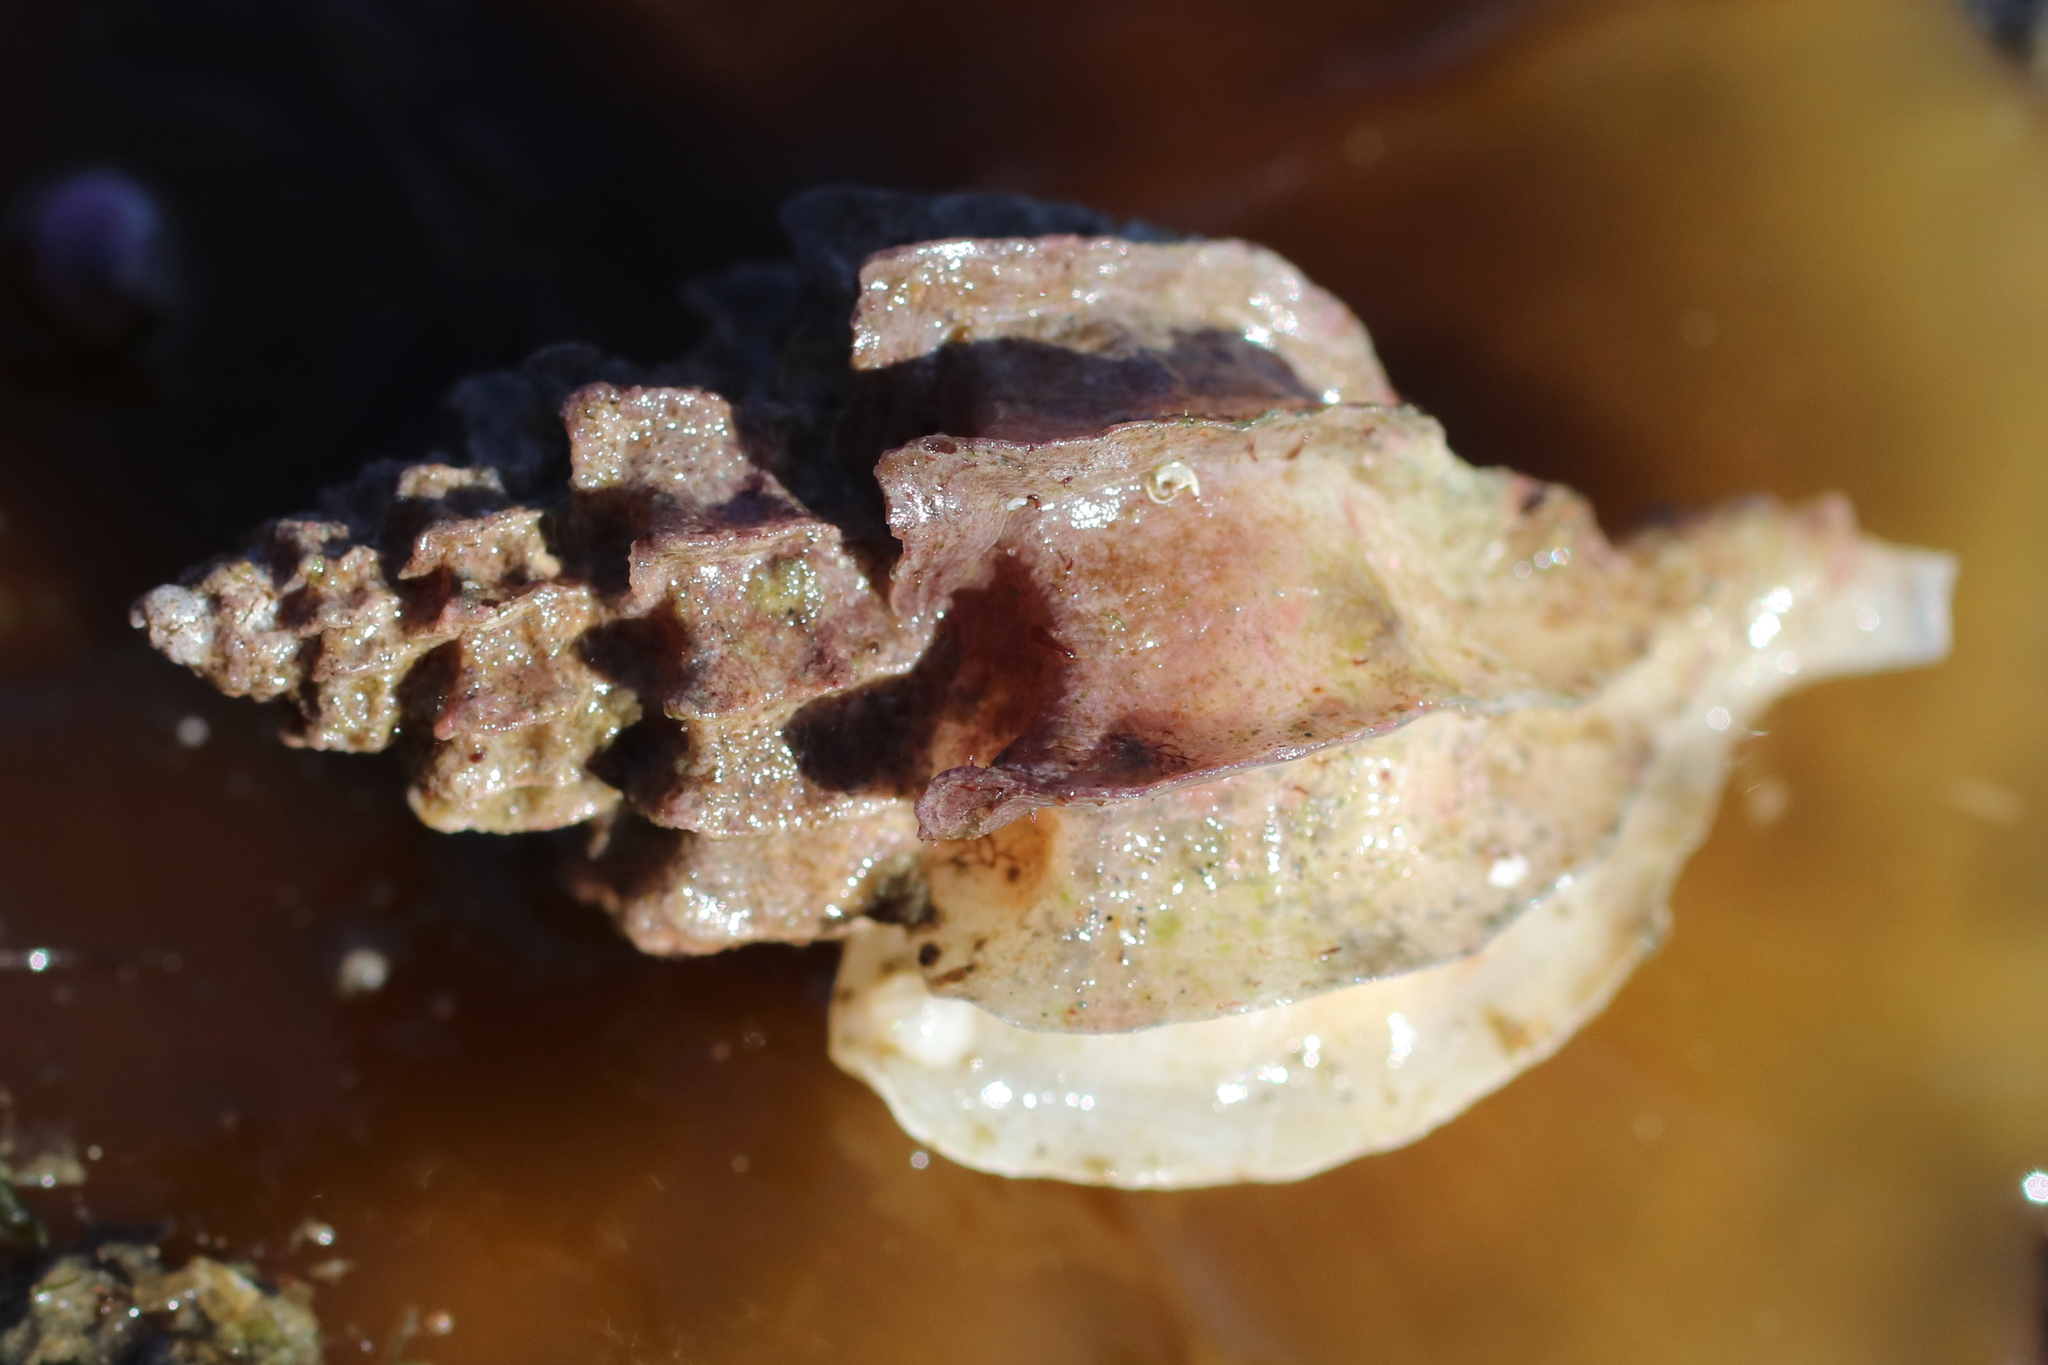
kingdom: Animalia
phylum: Mollusca
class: Gastropoda
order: Neogastropoda
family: Muricidae
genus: Scabrotrophon
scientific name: Scabrotrophon stuarti
